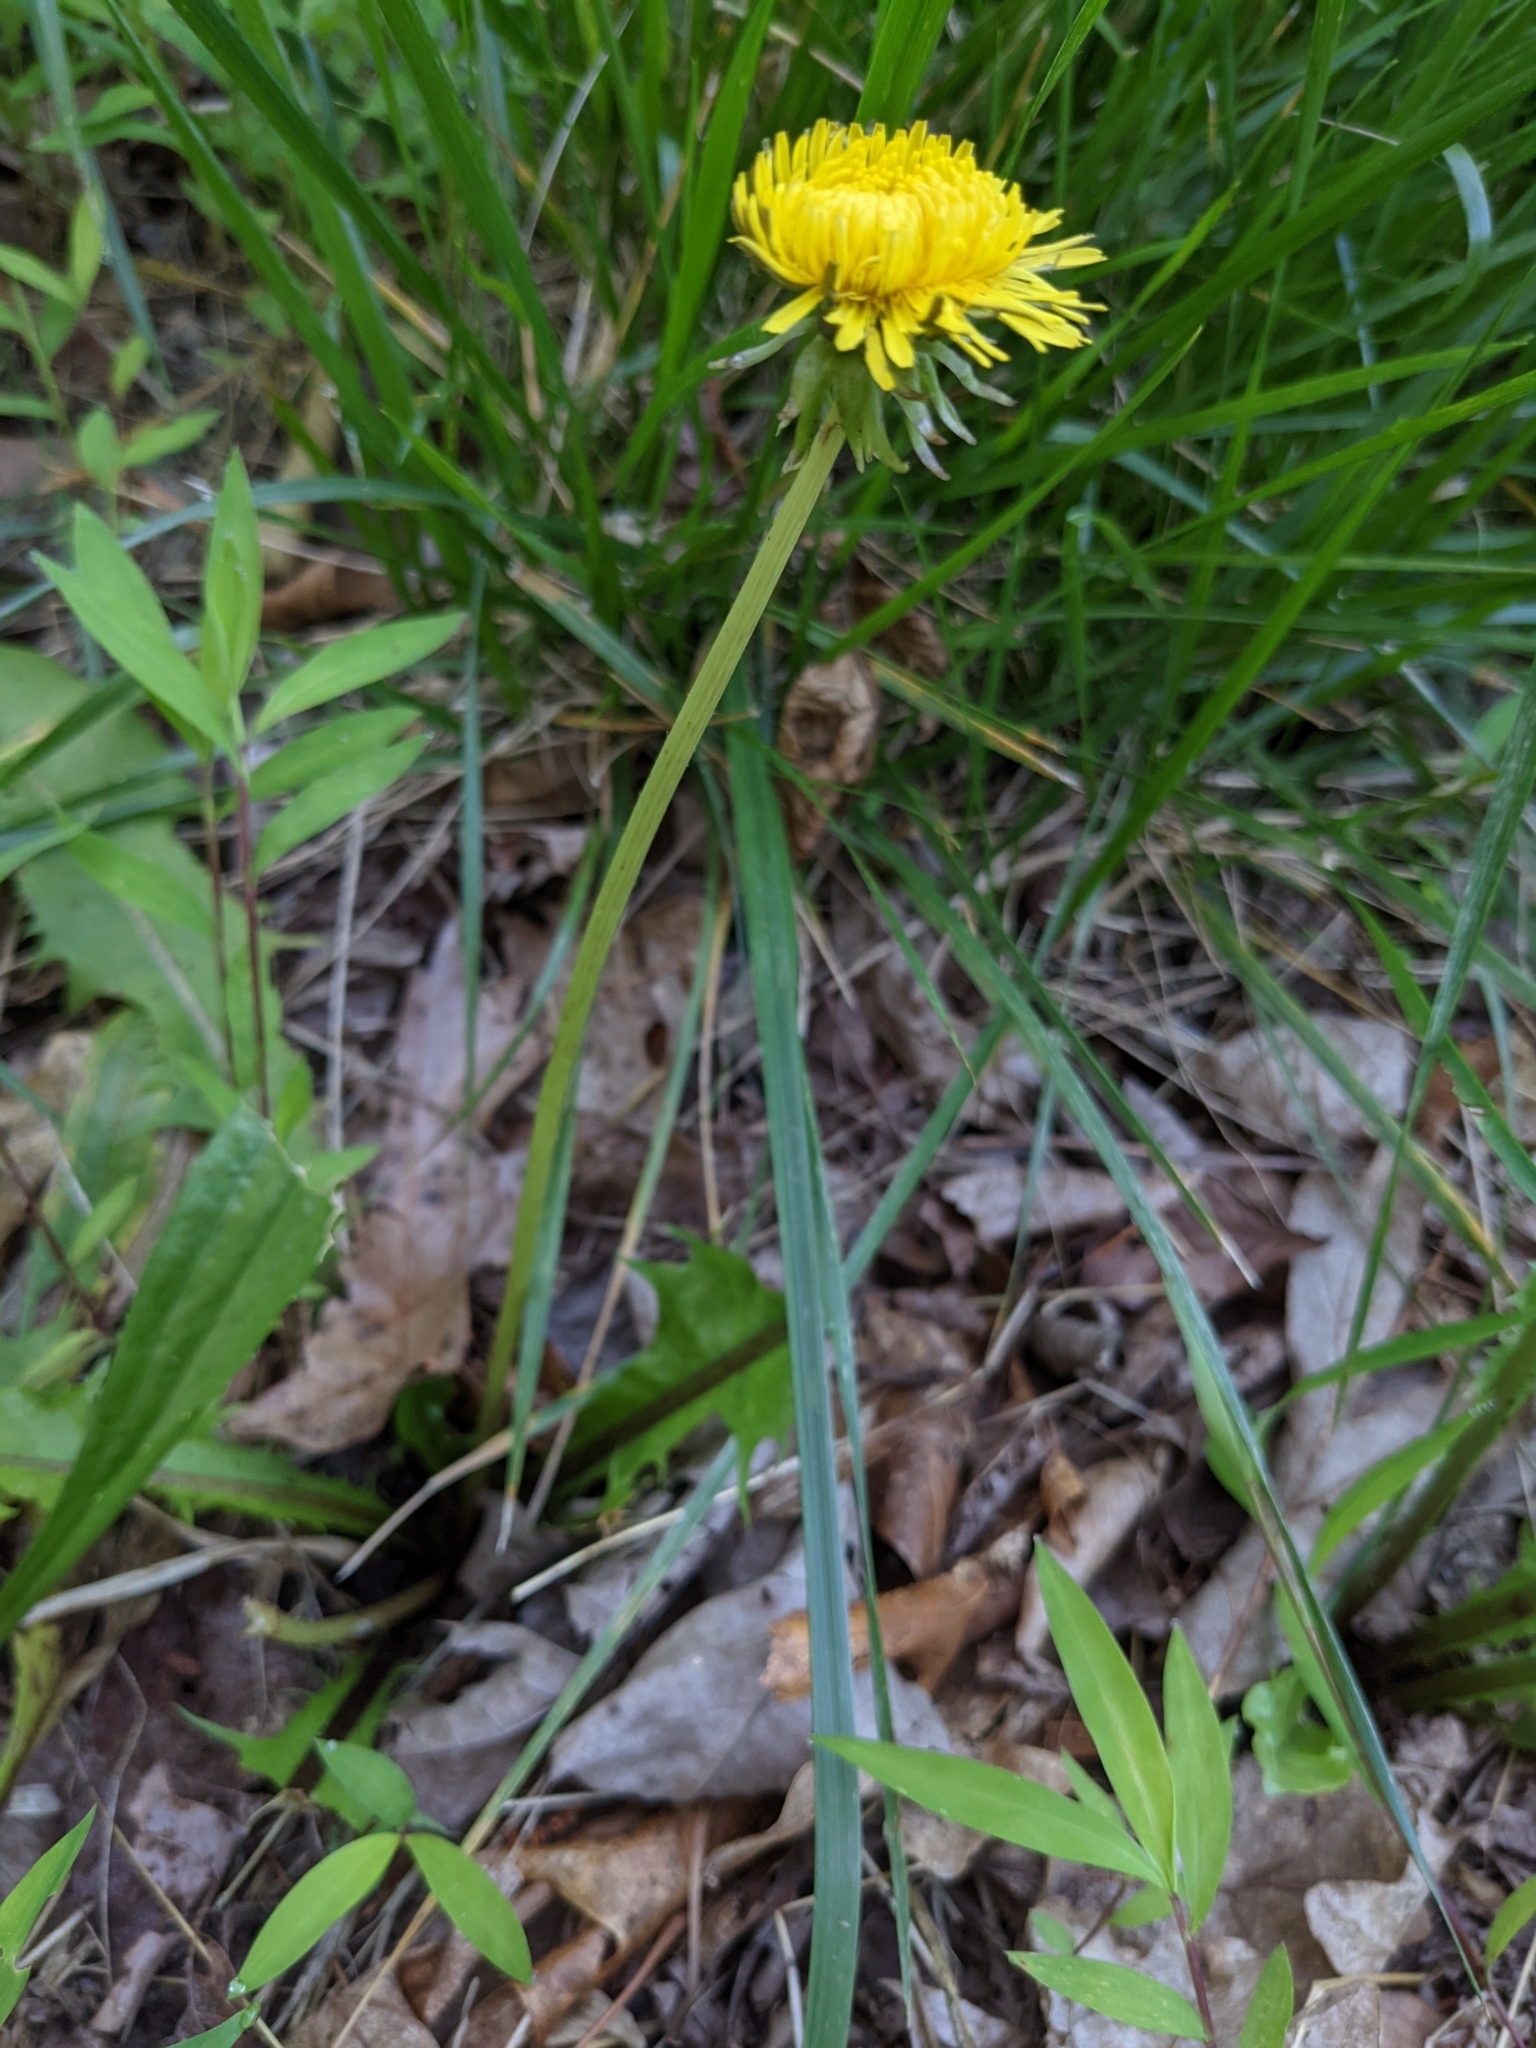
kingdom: Plantae
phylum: Tracheophyta
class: Magnoliopsida
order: Asterales
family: Asteraceae
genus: Taraxacum
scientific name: Taraxacum officinale
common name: Common dandelion
